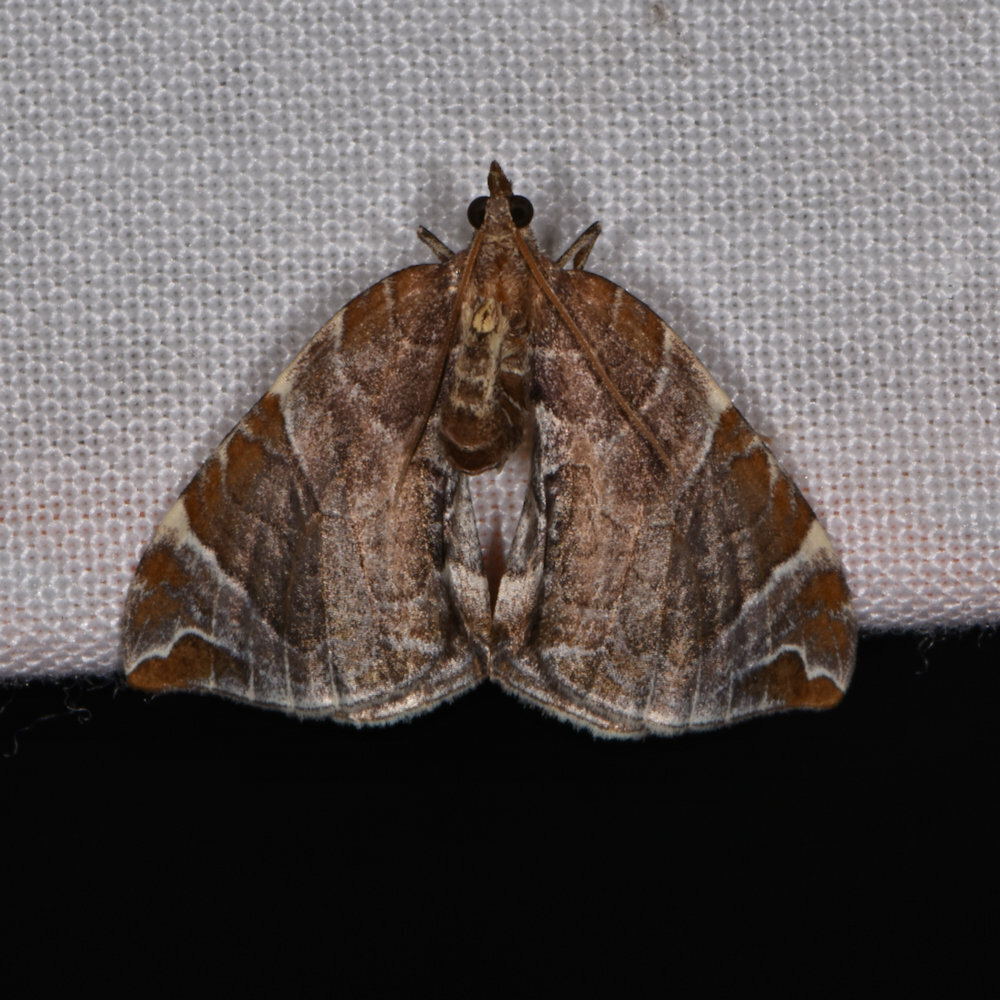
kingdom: Animalia
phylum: Arthropoda
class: Insecta
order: Lepidoptera
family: Geometridae
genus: Eulithis
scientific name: Eulithis molliculata
